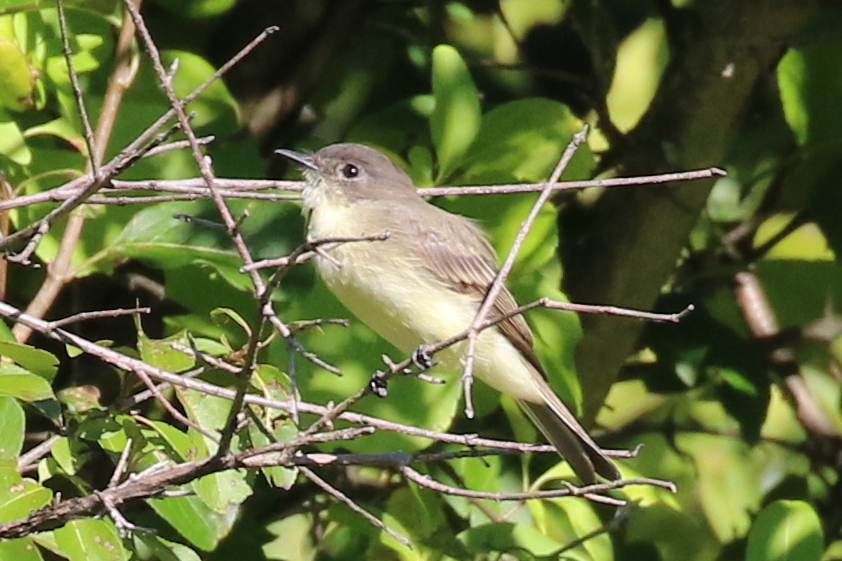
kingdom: Animalia
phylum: Chordata
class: Aves
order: Passeriformes
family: Tyrannidae
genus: Sayornis
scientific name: Sayornis phoebe
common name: Eastern phoebe
